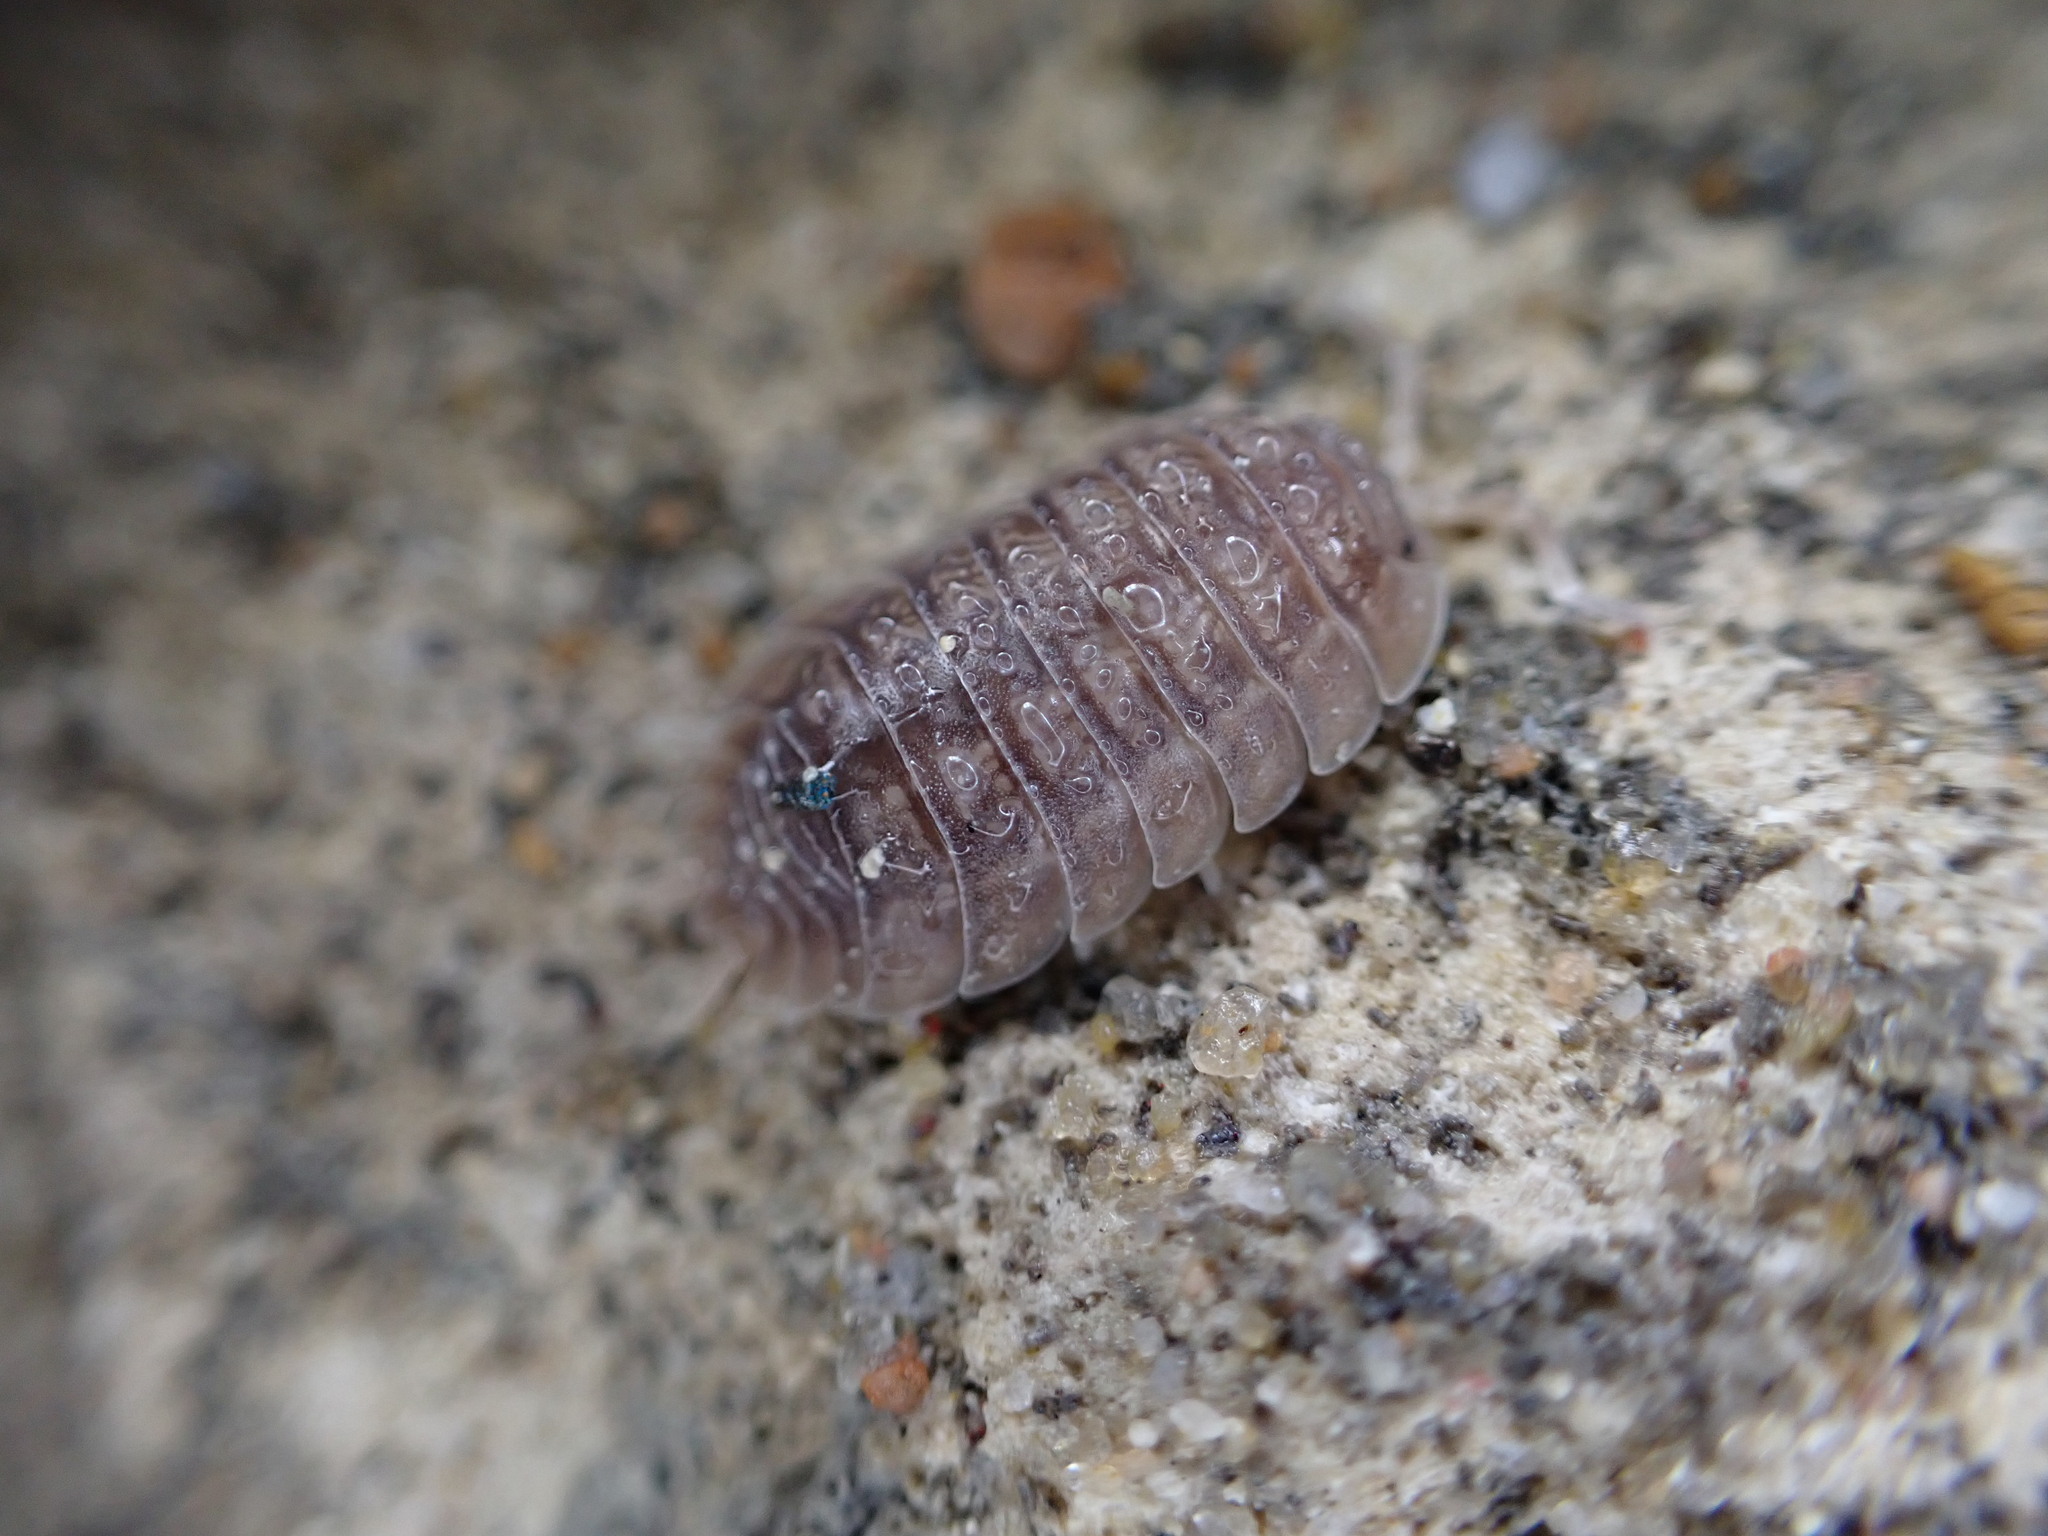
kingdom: Animalia
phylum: Arthropoda
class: Malacostraca
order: Isopoda
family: Porcellionidae
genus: Porcellio
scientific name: Porcellio dilatatus
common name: Isopod
